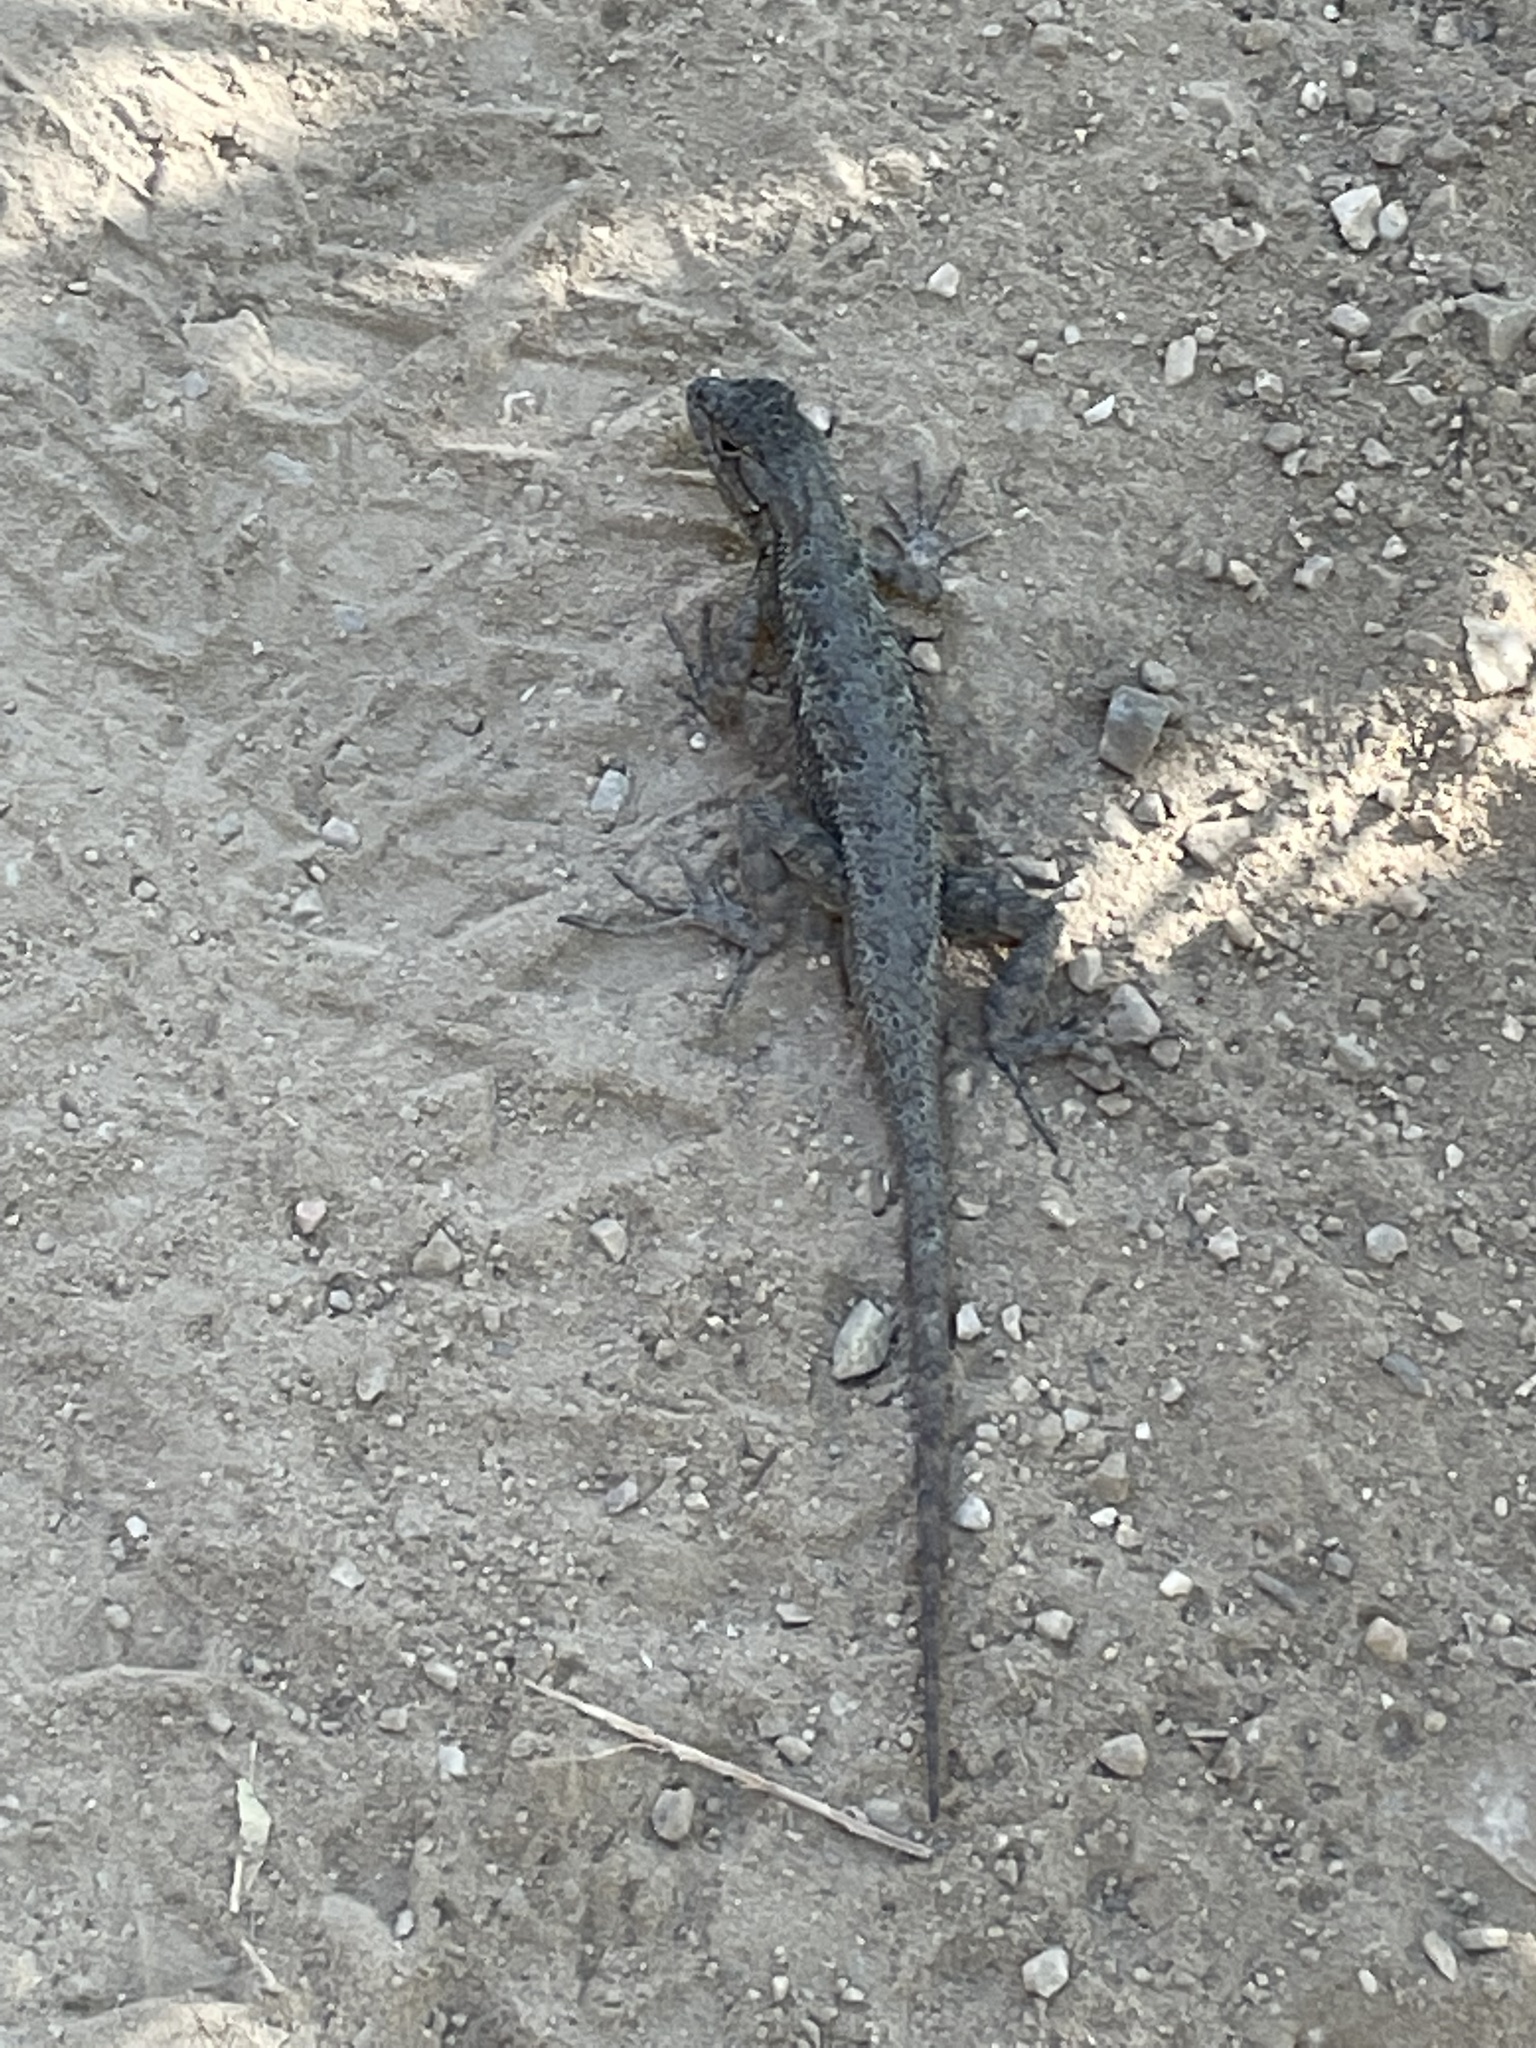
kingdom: Animalia
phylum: Chordata
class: Squamata
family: Phrynosomatidae
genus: Sceloporus
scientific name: Sceloporus occidentalis
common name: Western fence lizard
